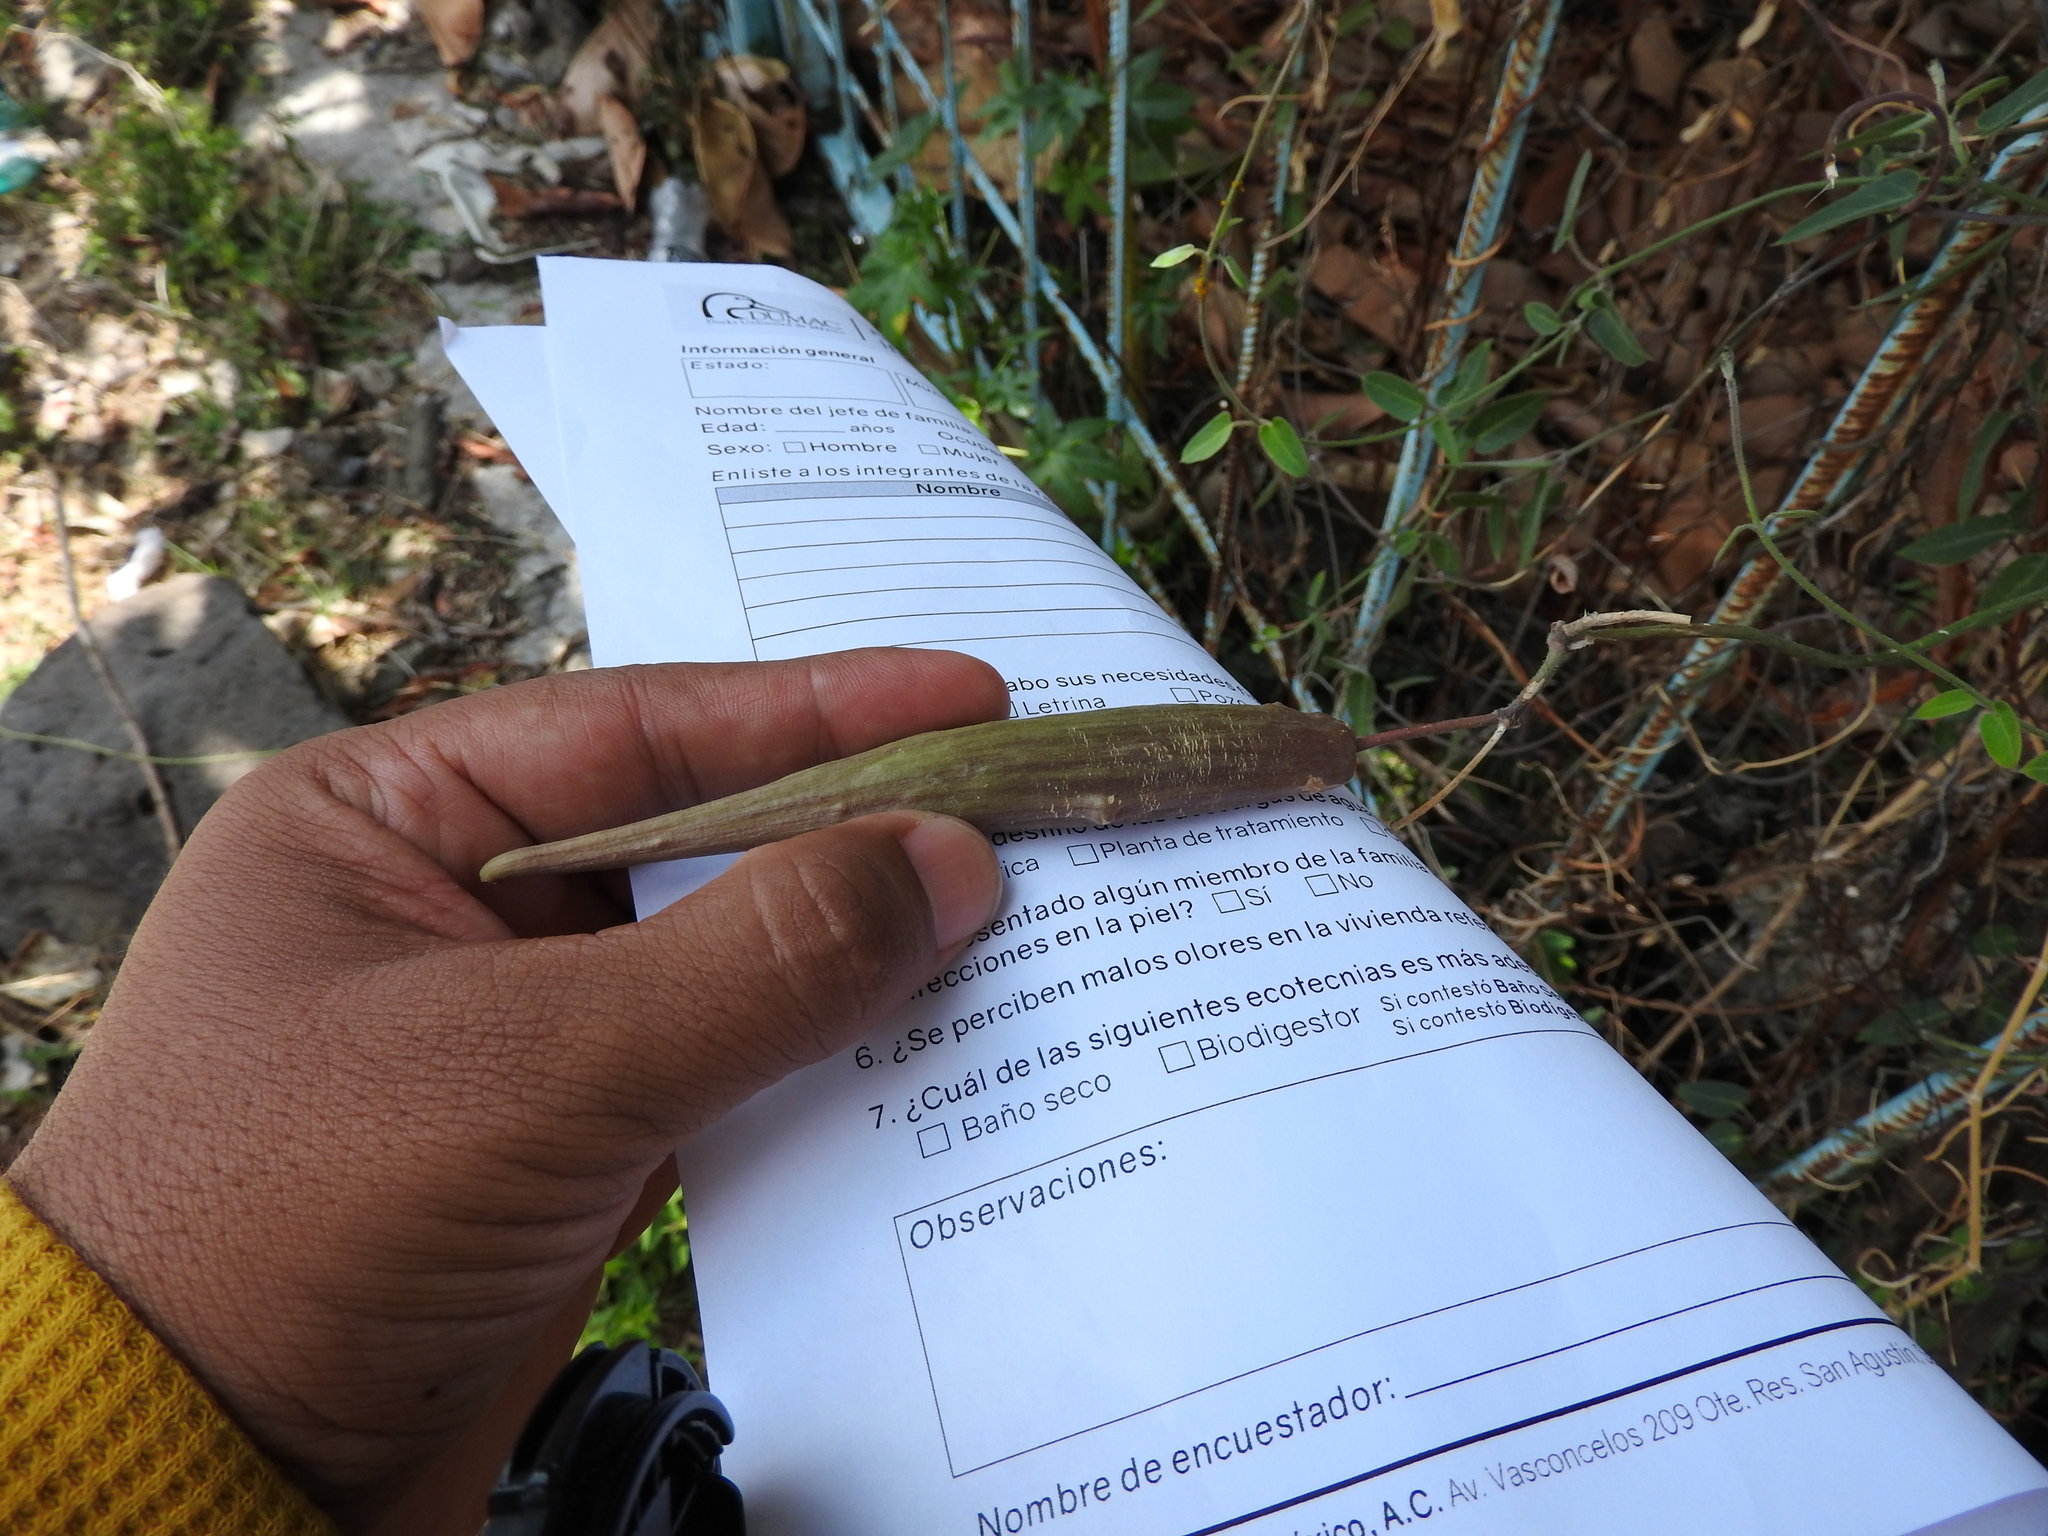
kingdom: Plantae
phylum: Tracheophyta
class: Magnoliopsida
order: Gentianales
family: Apocynaceae
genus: Funastrum
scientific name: Funastrum elegans
